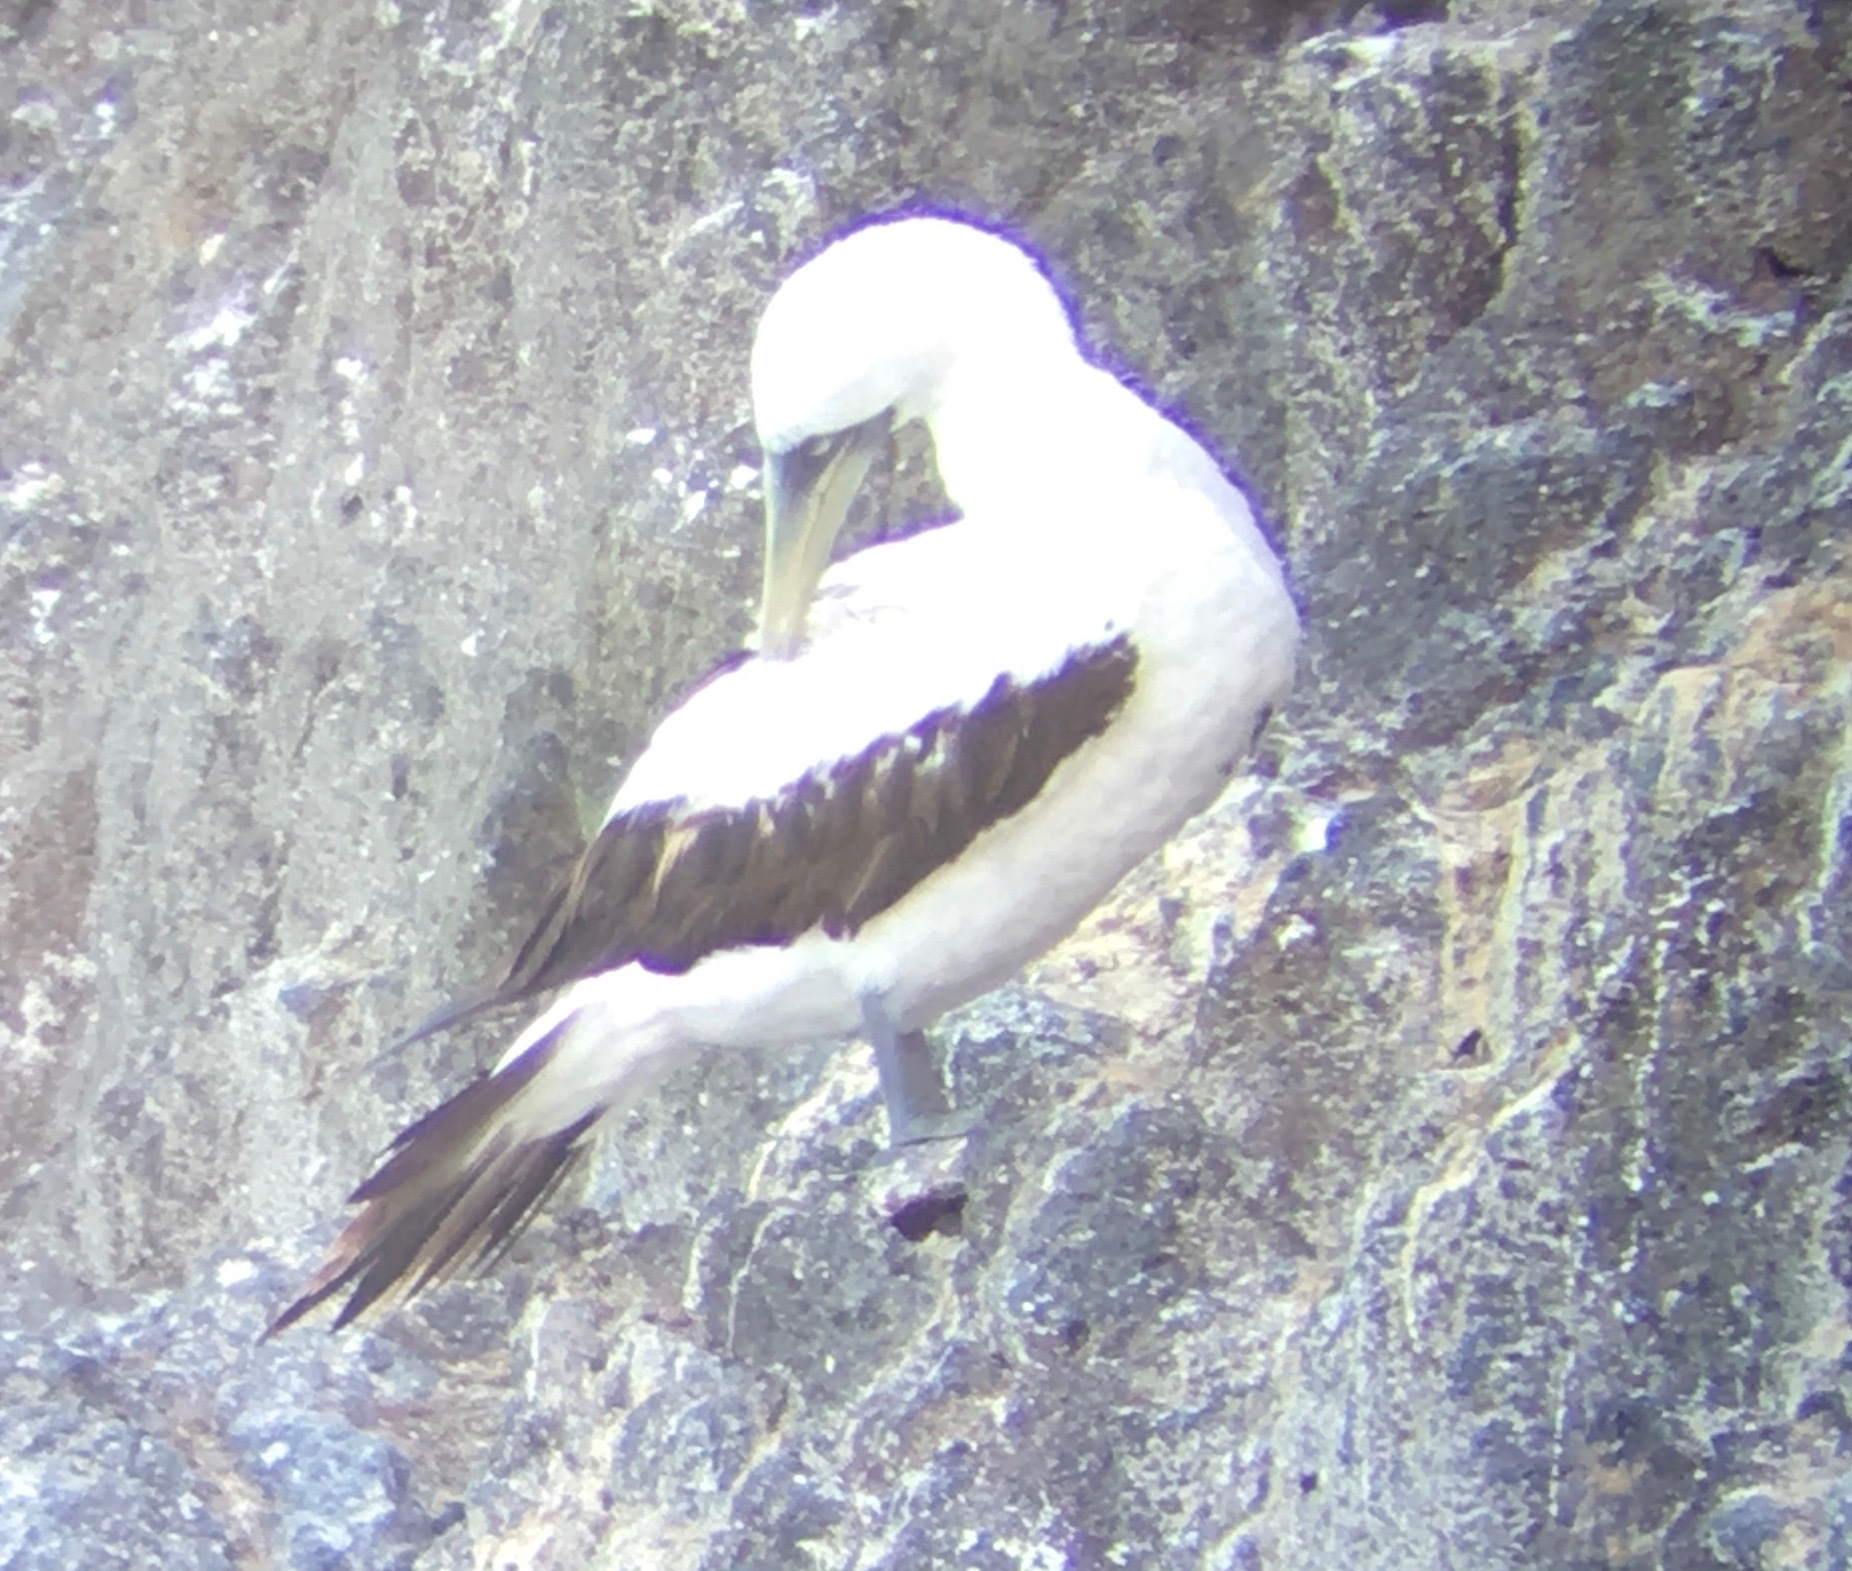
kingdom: Animalia
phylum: Chordata
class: Aves
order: Suliformes
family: Sulidae
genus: Sula
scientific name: Sula dactylatra
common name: Masked booby
